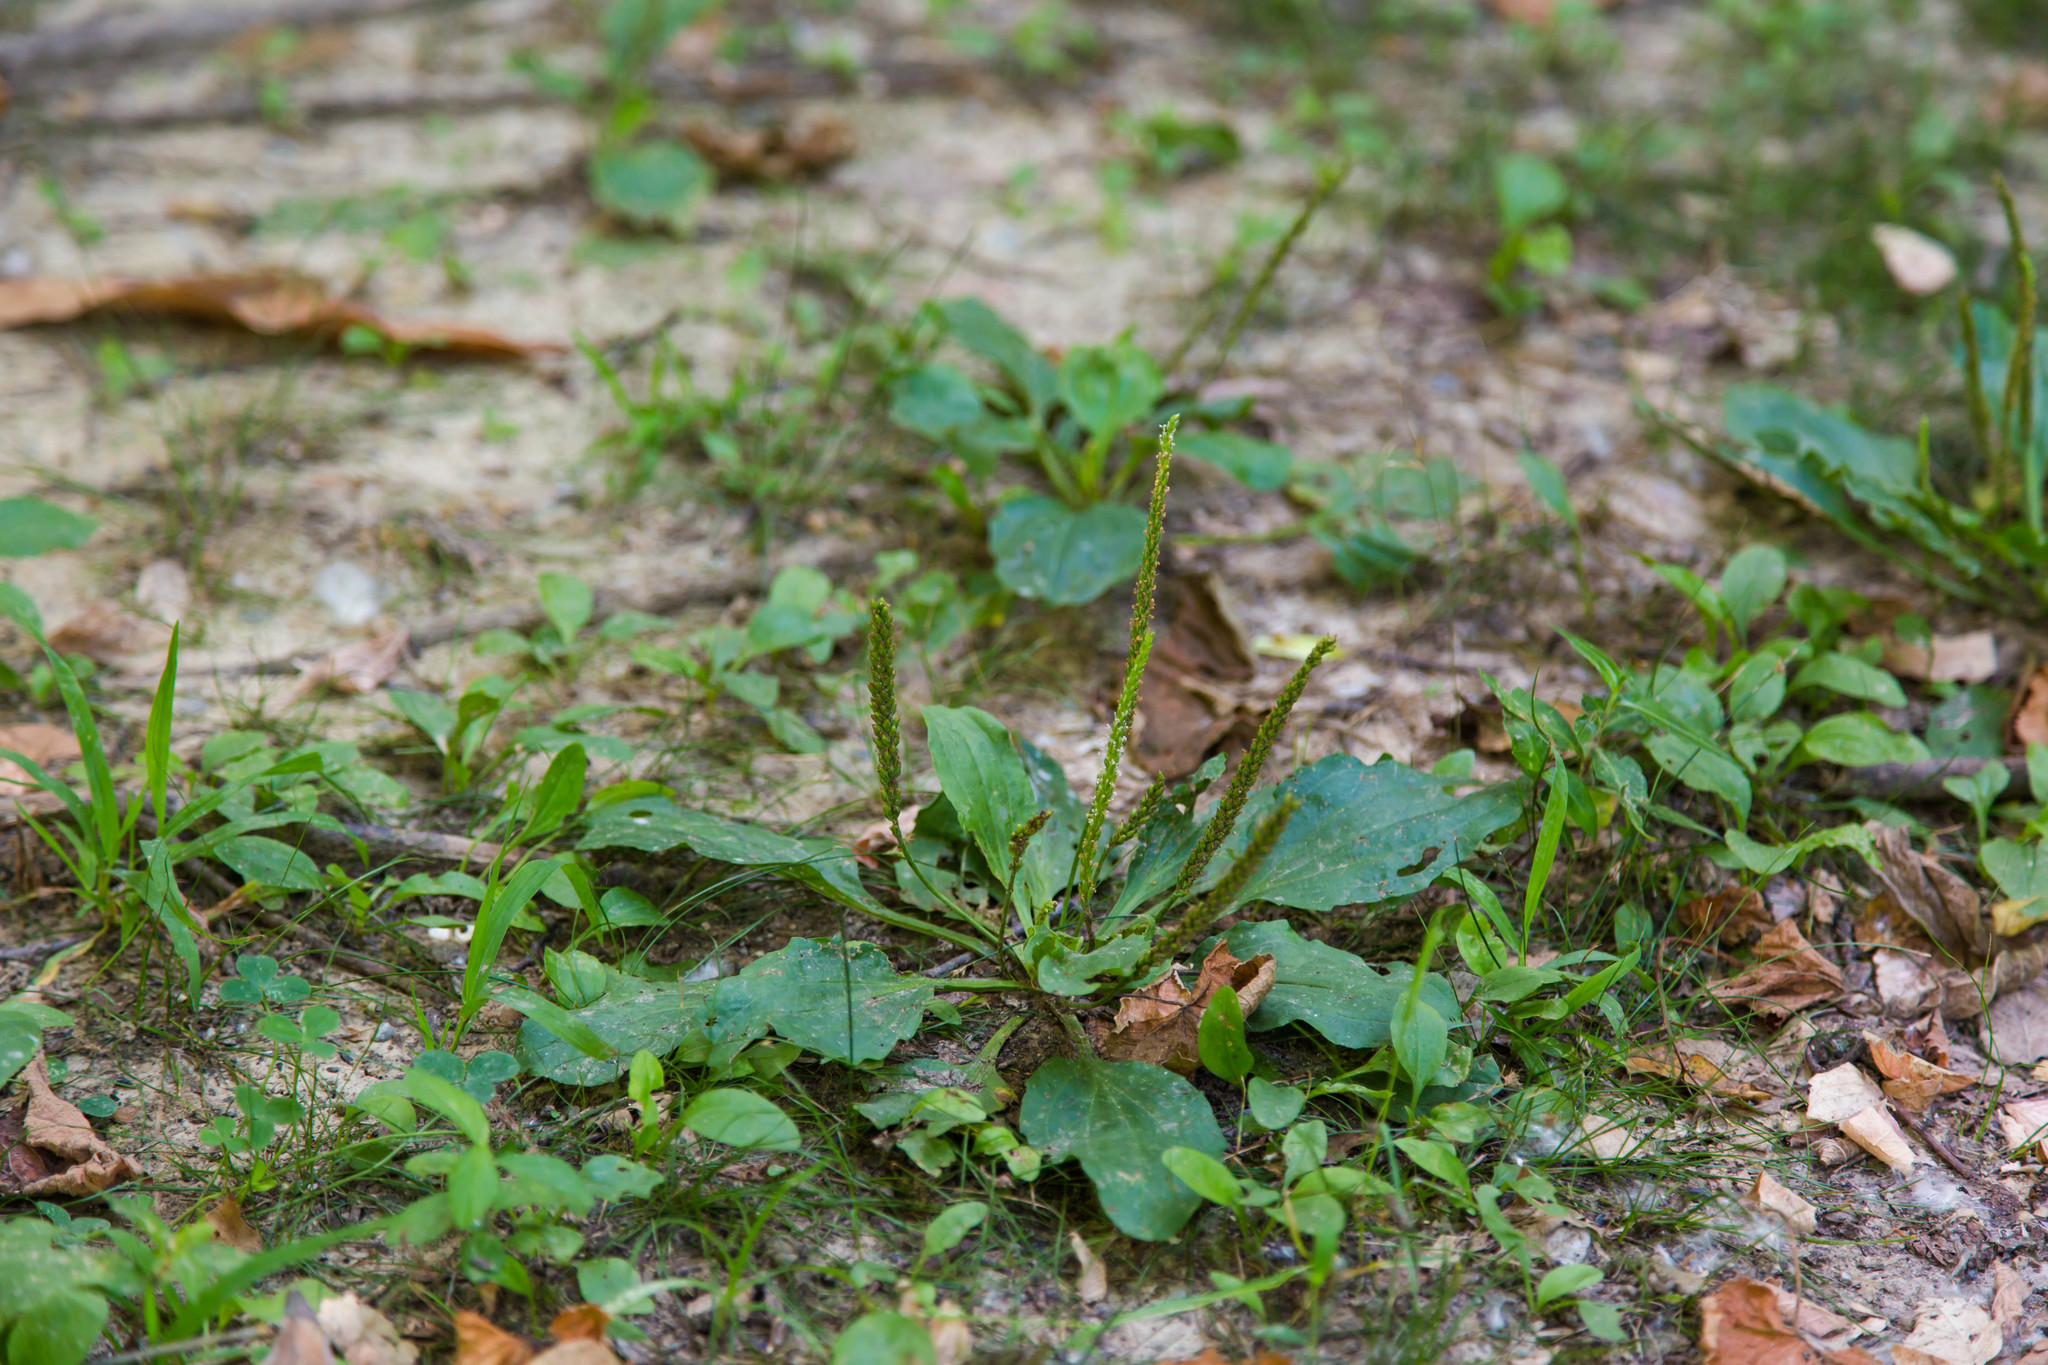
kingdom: Plantae
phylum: Tracheophyta
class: Magnoliopsida
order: Lamiales
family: Plantaginaceae
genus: Plantago
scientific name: Plantago major
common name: Common plantain
